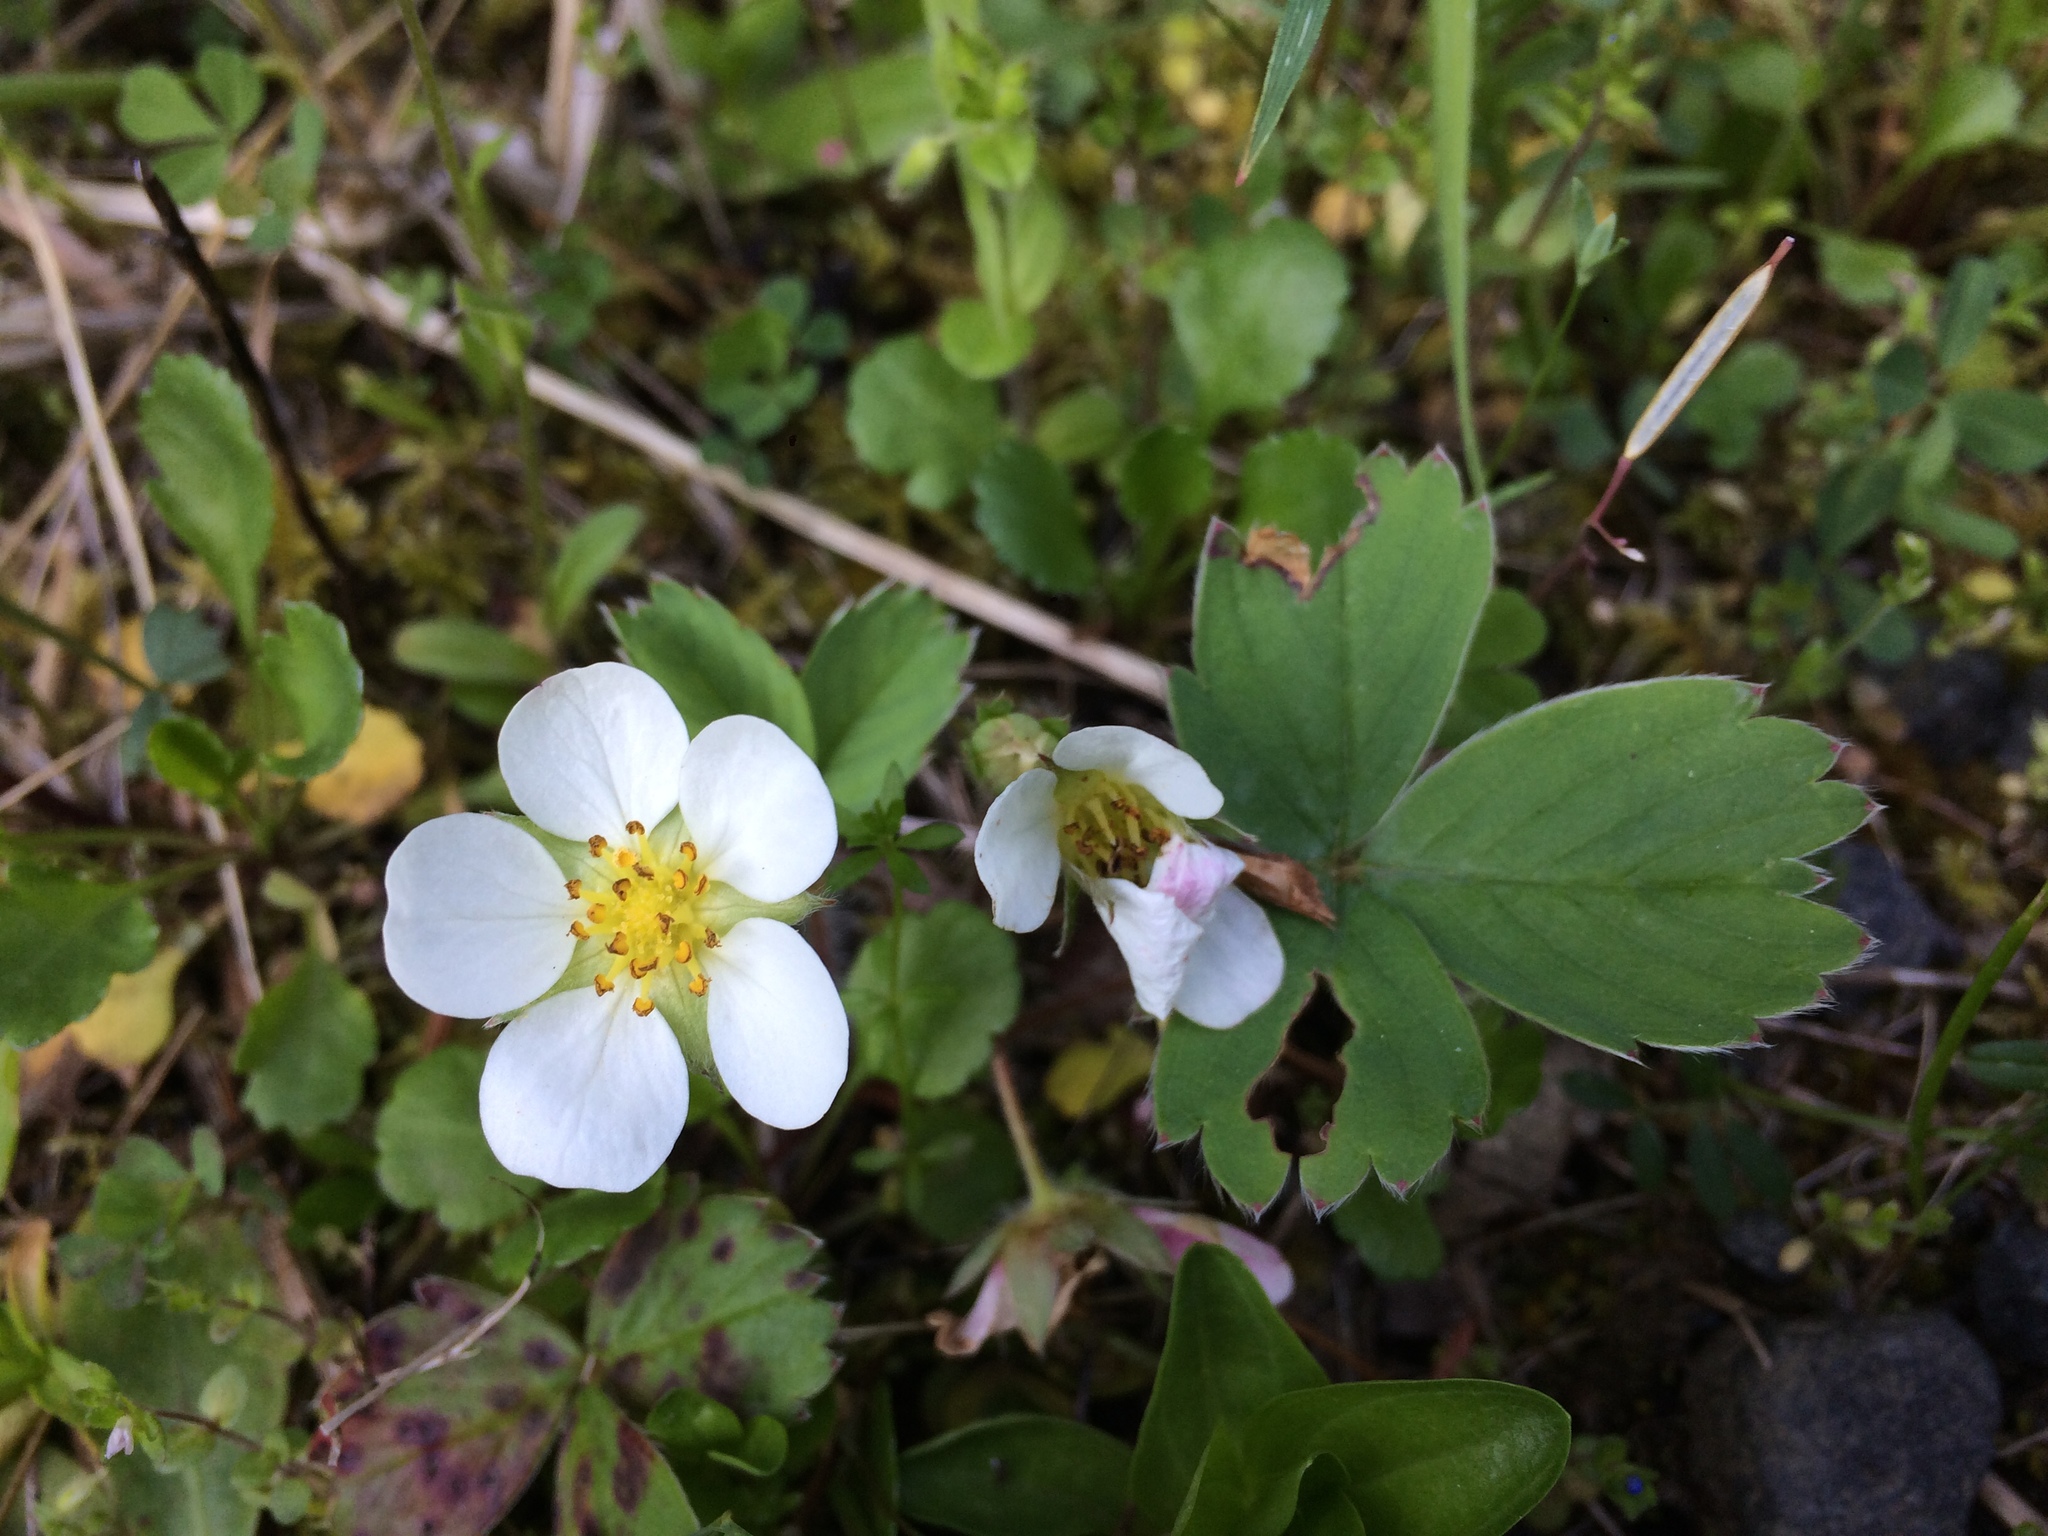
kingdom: Plantae
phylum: Tracheophyta
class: Magnoliopsida
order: Rosales
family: Rosaceae
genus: Fragaria
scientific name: Fragaria ananassa
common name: Garden strawberry
